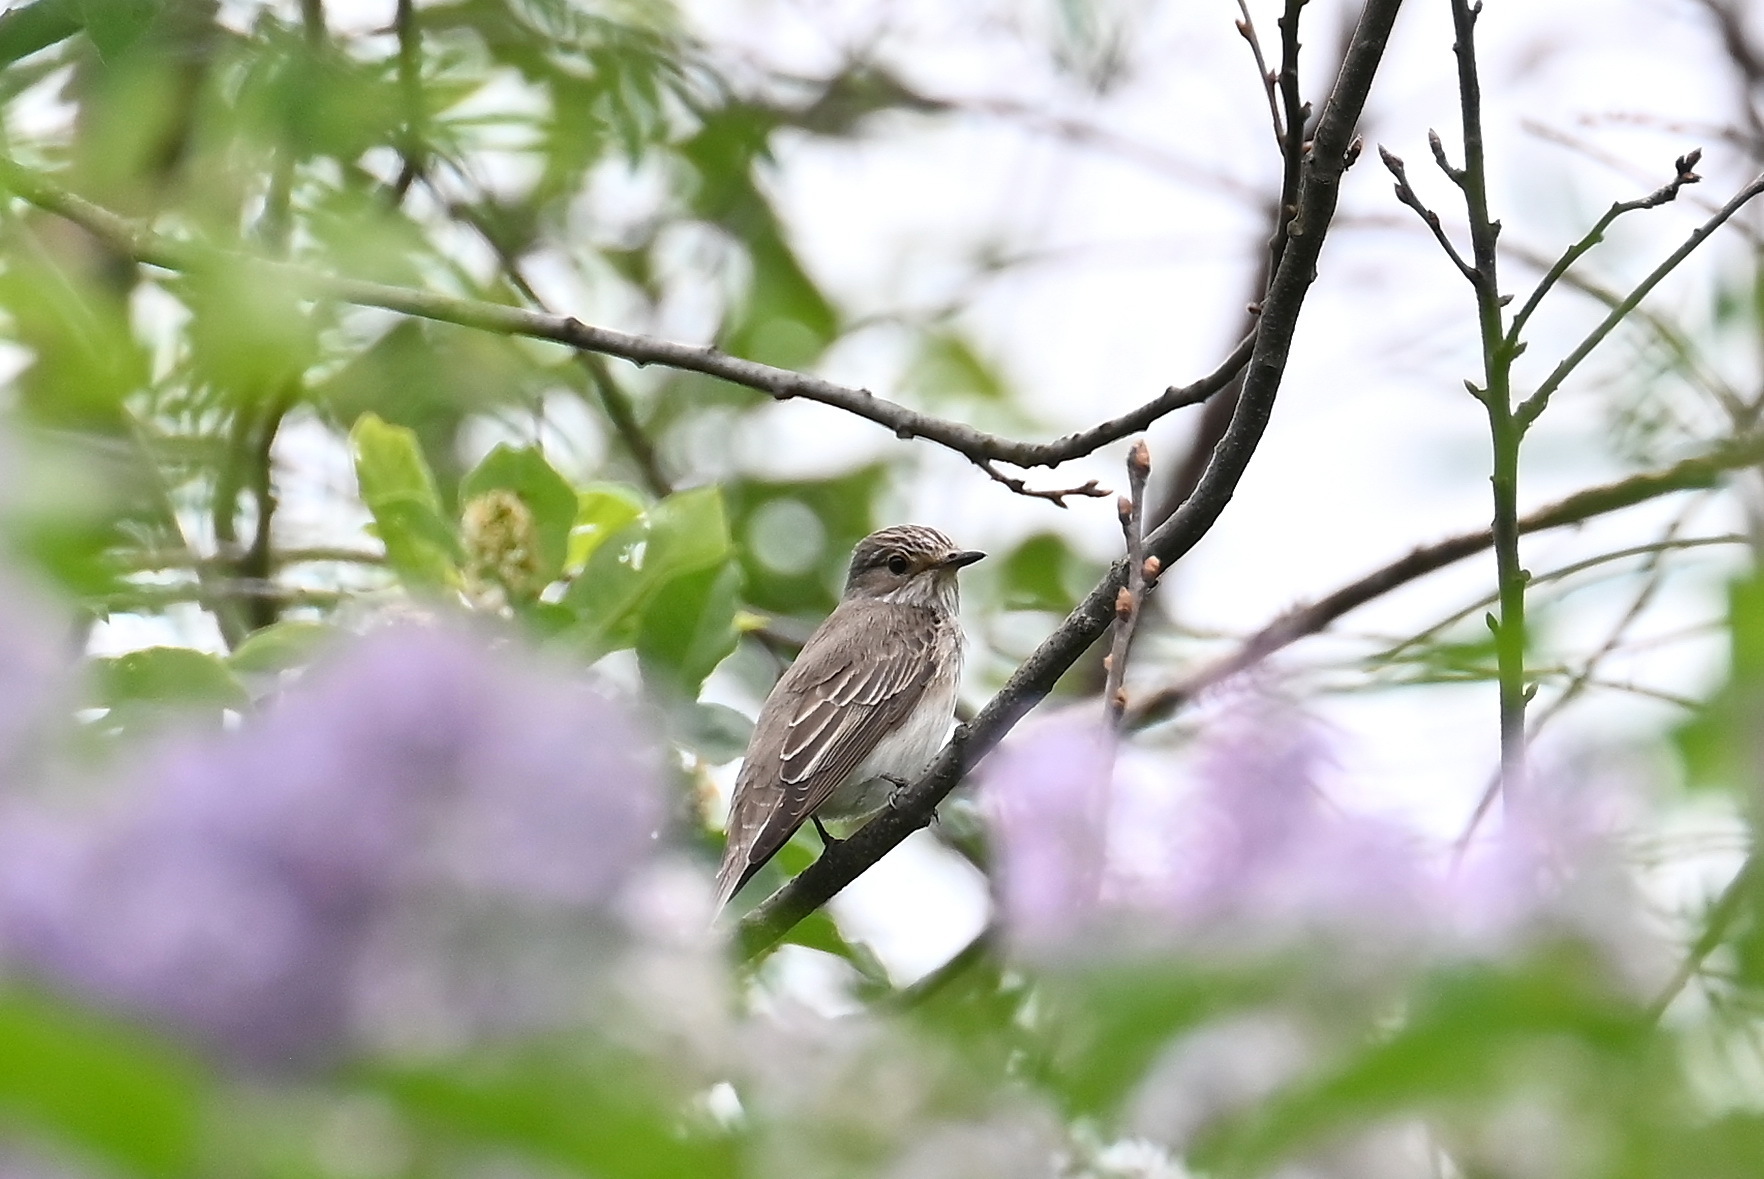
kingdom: Animalia
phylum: Chordata
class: Aves
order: Passeriformes
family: Muscicapidae
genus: Muscicapa
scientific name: Muscicapa striata
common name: Spotted flycatcher
